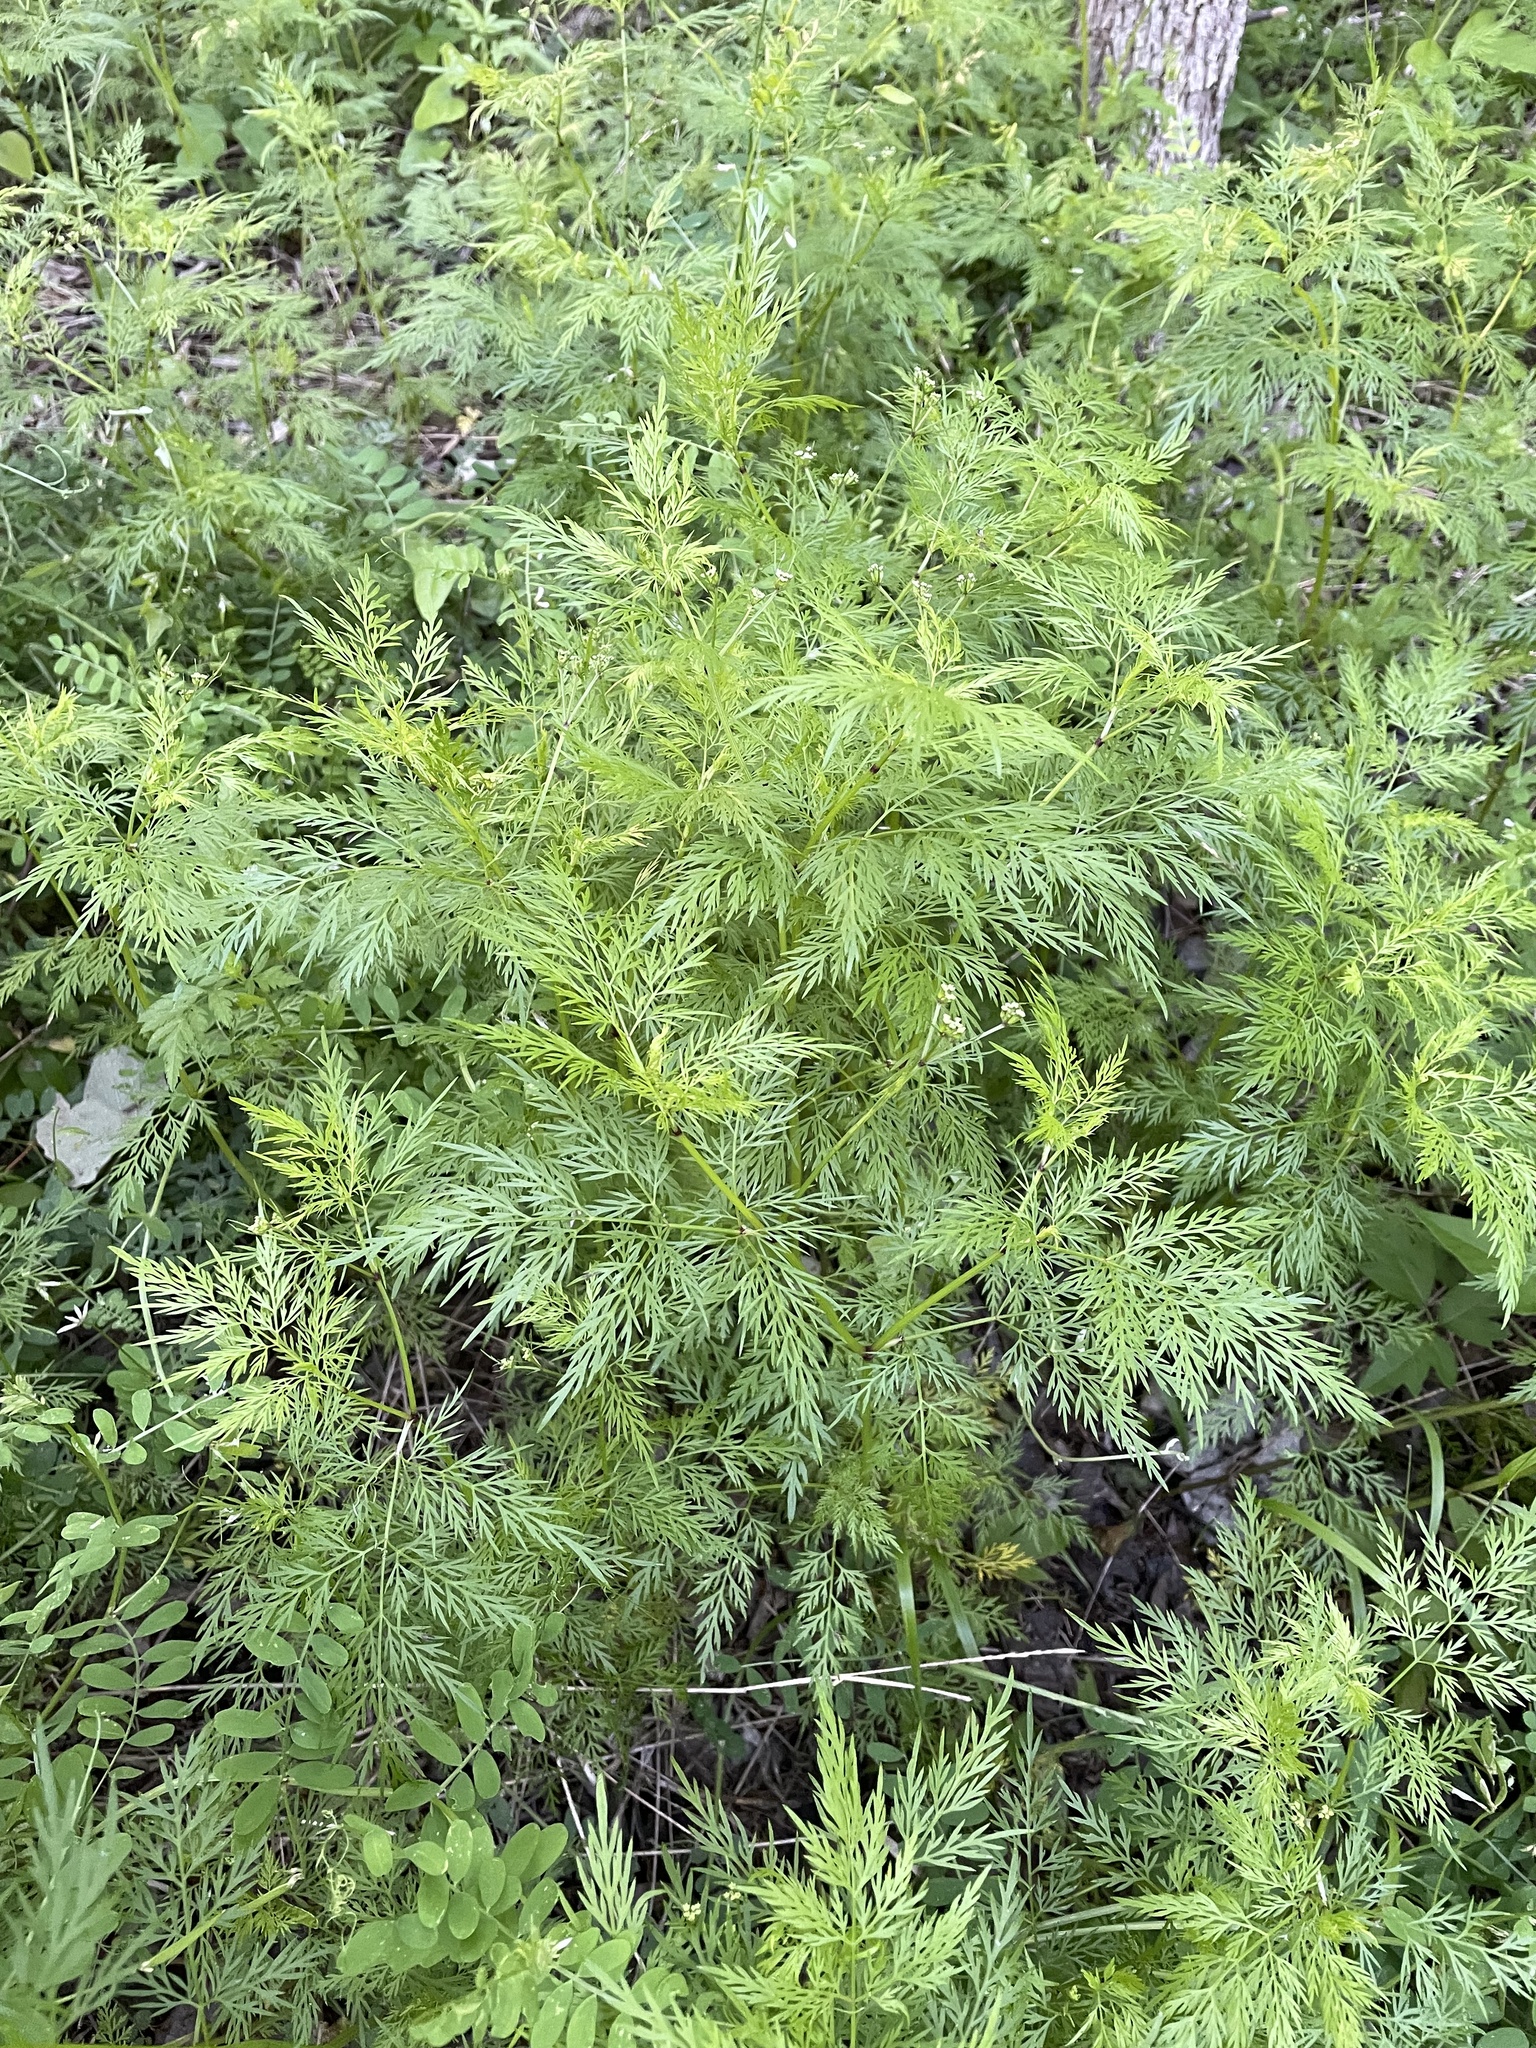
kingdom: Plantae
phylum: Tracheophyta
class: Magnoliopsida
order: Apiales
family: Apiaceae
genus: Trepocarpus
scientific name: Trepocarpus aethusae
